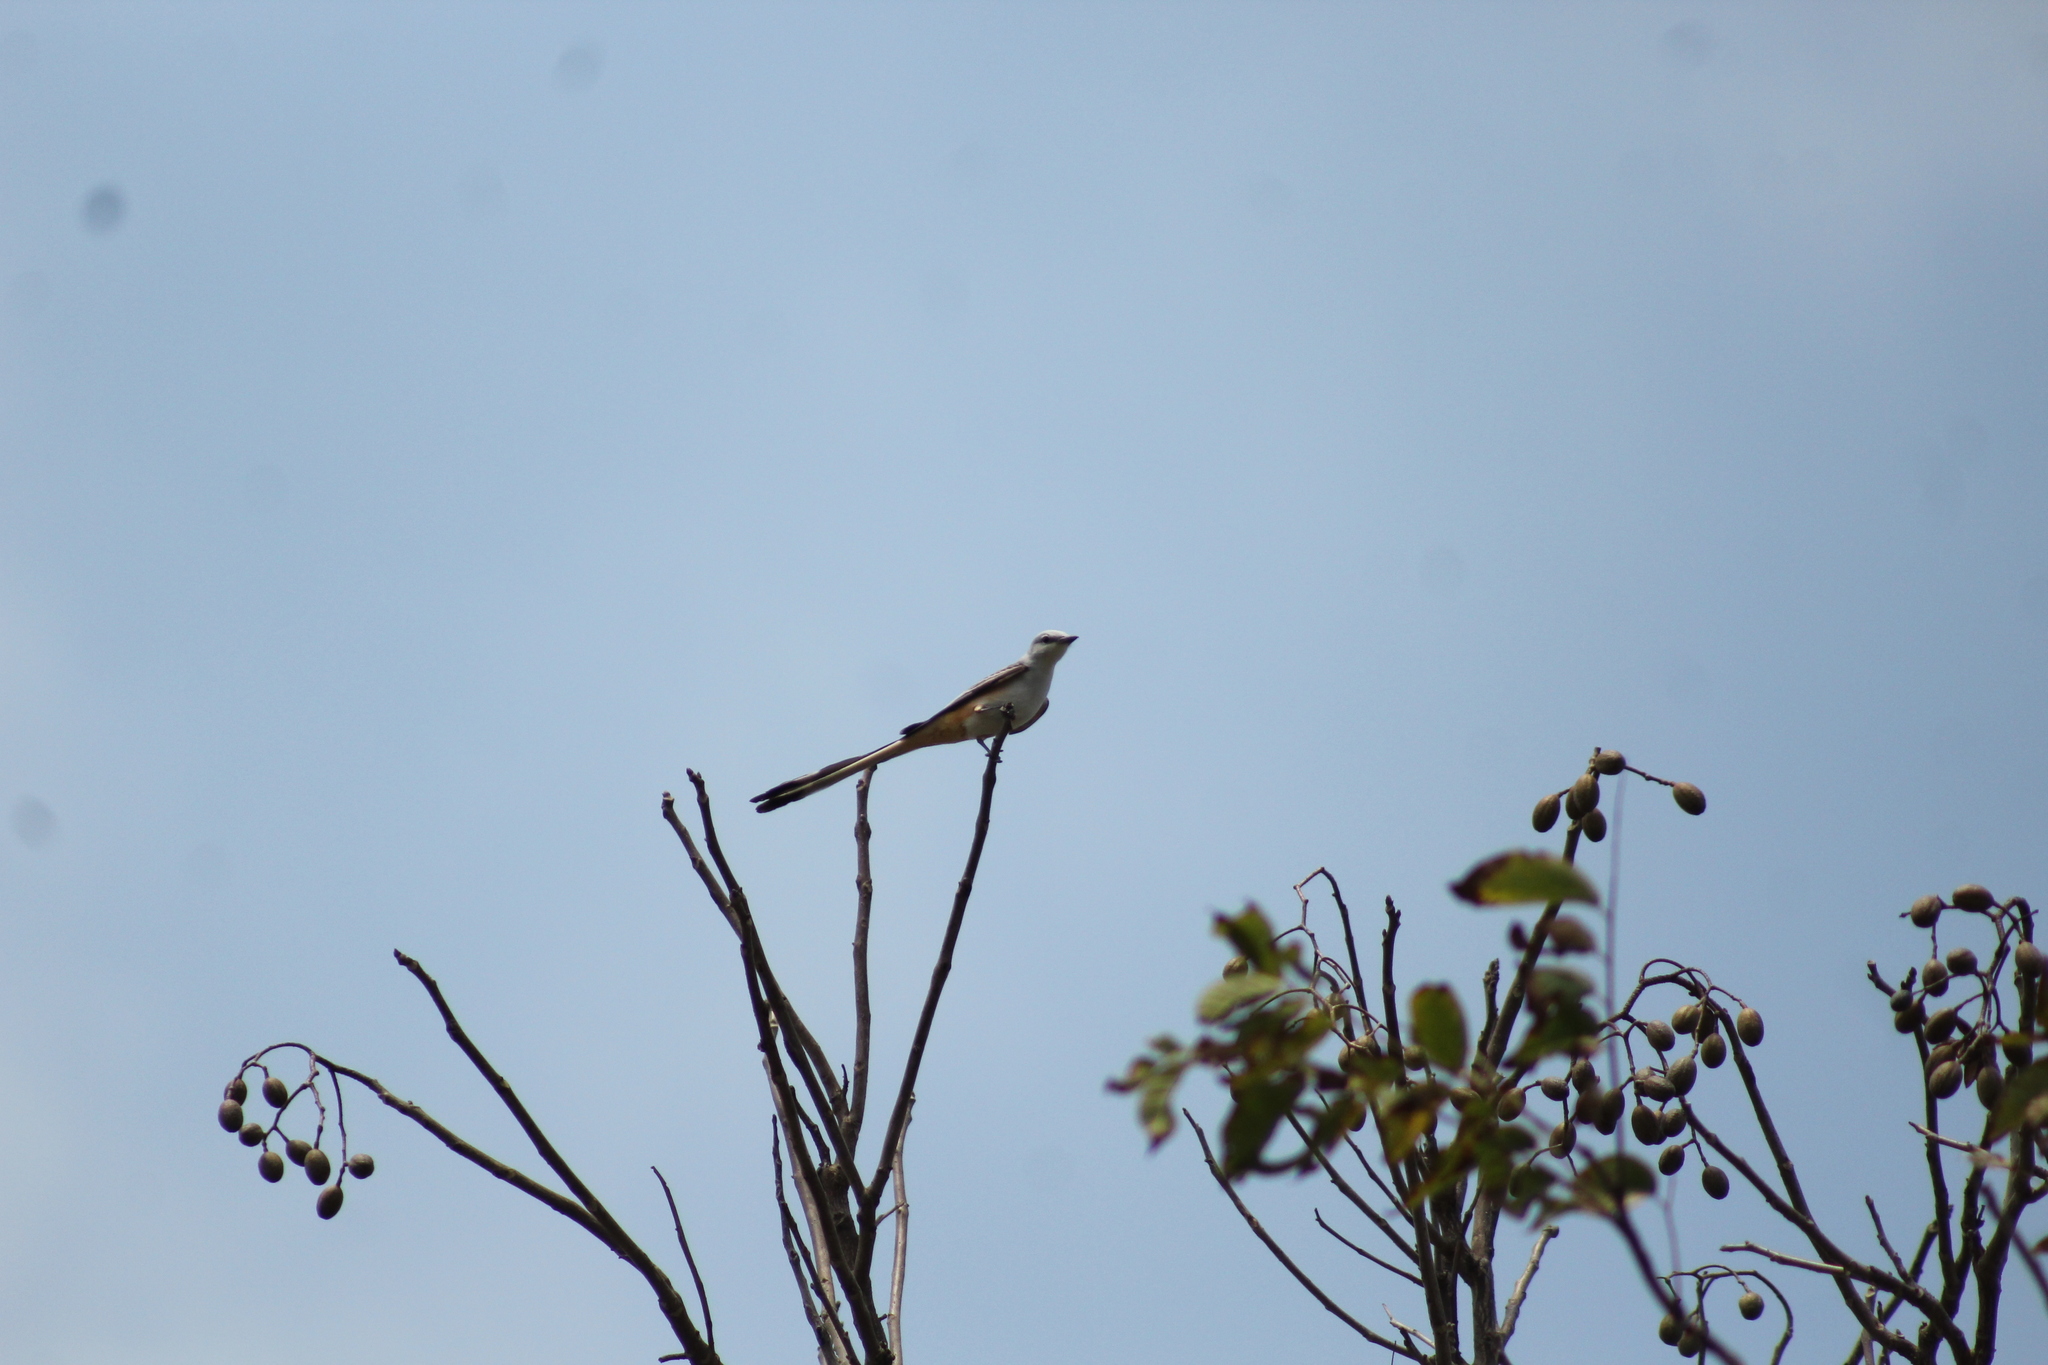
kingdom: Animalia
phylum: Chordata
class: Aves
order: Passeriformes
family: Tyrannidae
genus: Tyrannus
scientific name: Tyrannus forficatus
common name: Scissor-tailed flycatcher
